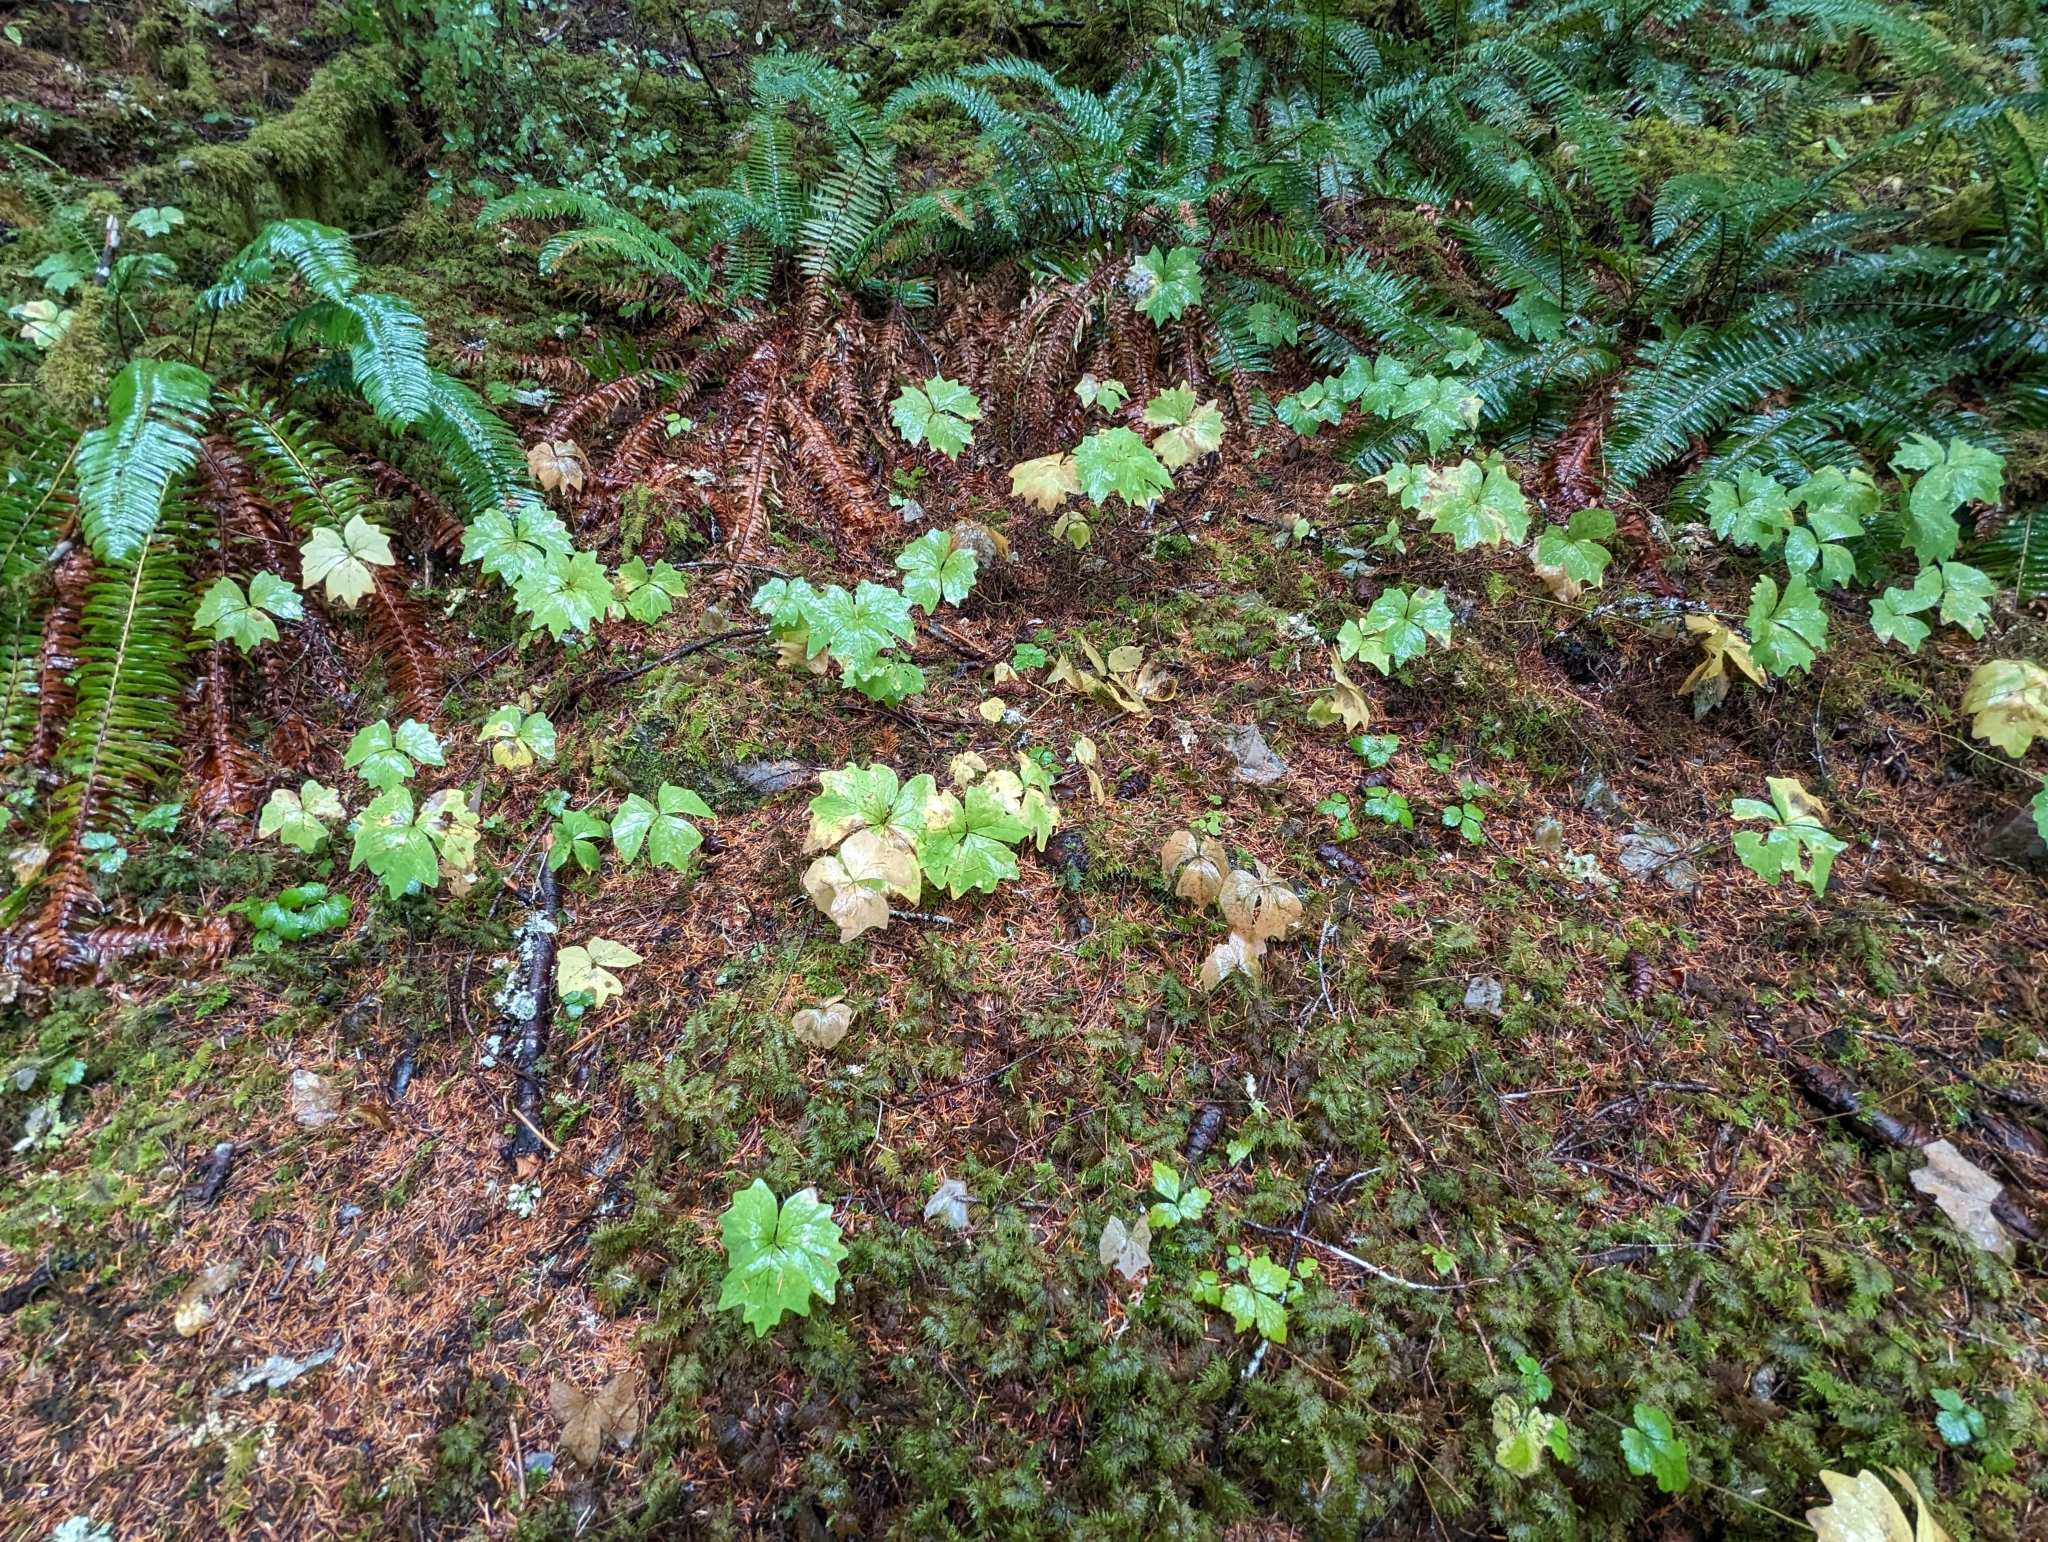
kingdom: Plantae
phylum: Tracheophyta
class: Magnoliopsida
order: Ranunculales
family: Berberidaceae
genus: Achlys
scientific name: Achlys triphylla
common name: Vanilla-leaf
